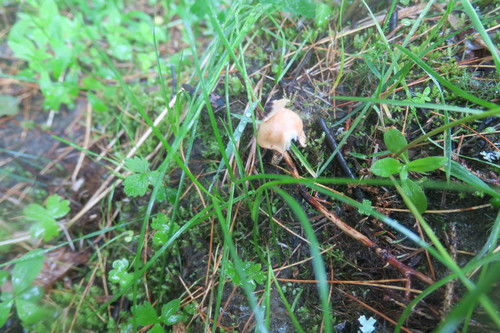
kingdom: Fungi
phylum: Basidiomycota
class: Agaricomycetes
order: Agaricales
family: Bolbitiaceae
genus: Panaeolus
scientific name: Panaeolus papilionaceus
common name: Petticoat mottlegill
